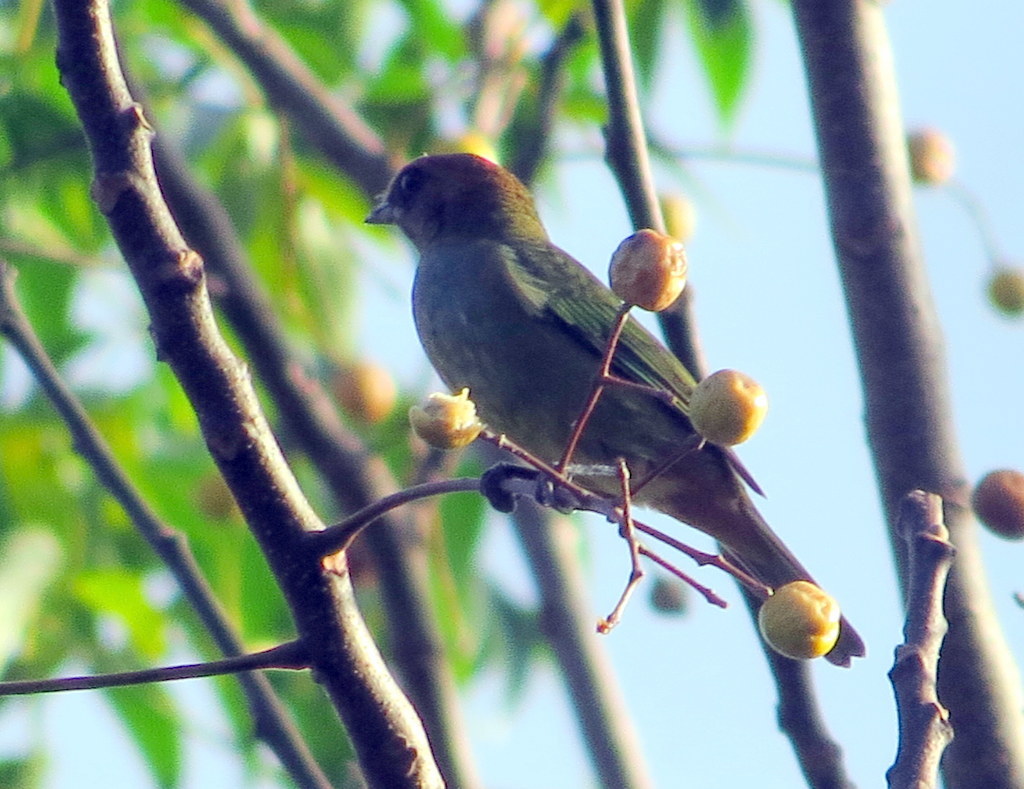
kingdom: Animalia
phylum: Chordata
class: Aves
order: Passeriformes
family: Thraupidae
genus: Stilpnia
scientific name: Stilpnia preciosa
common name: Chestnut-backed tanager
